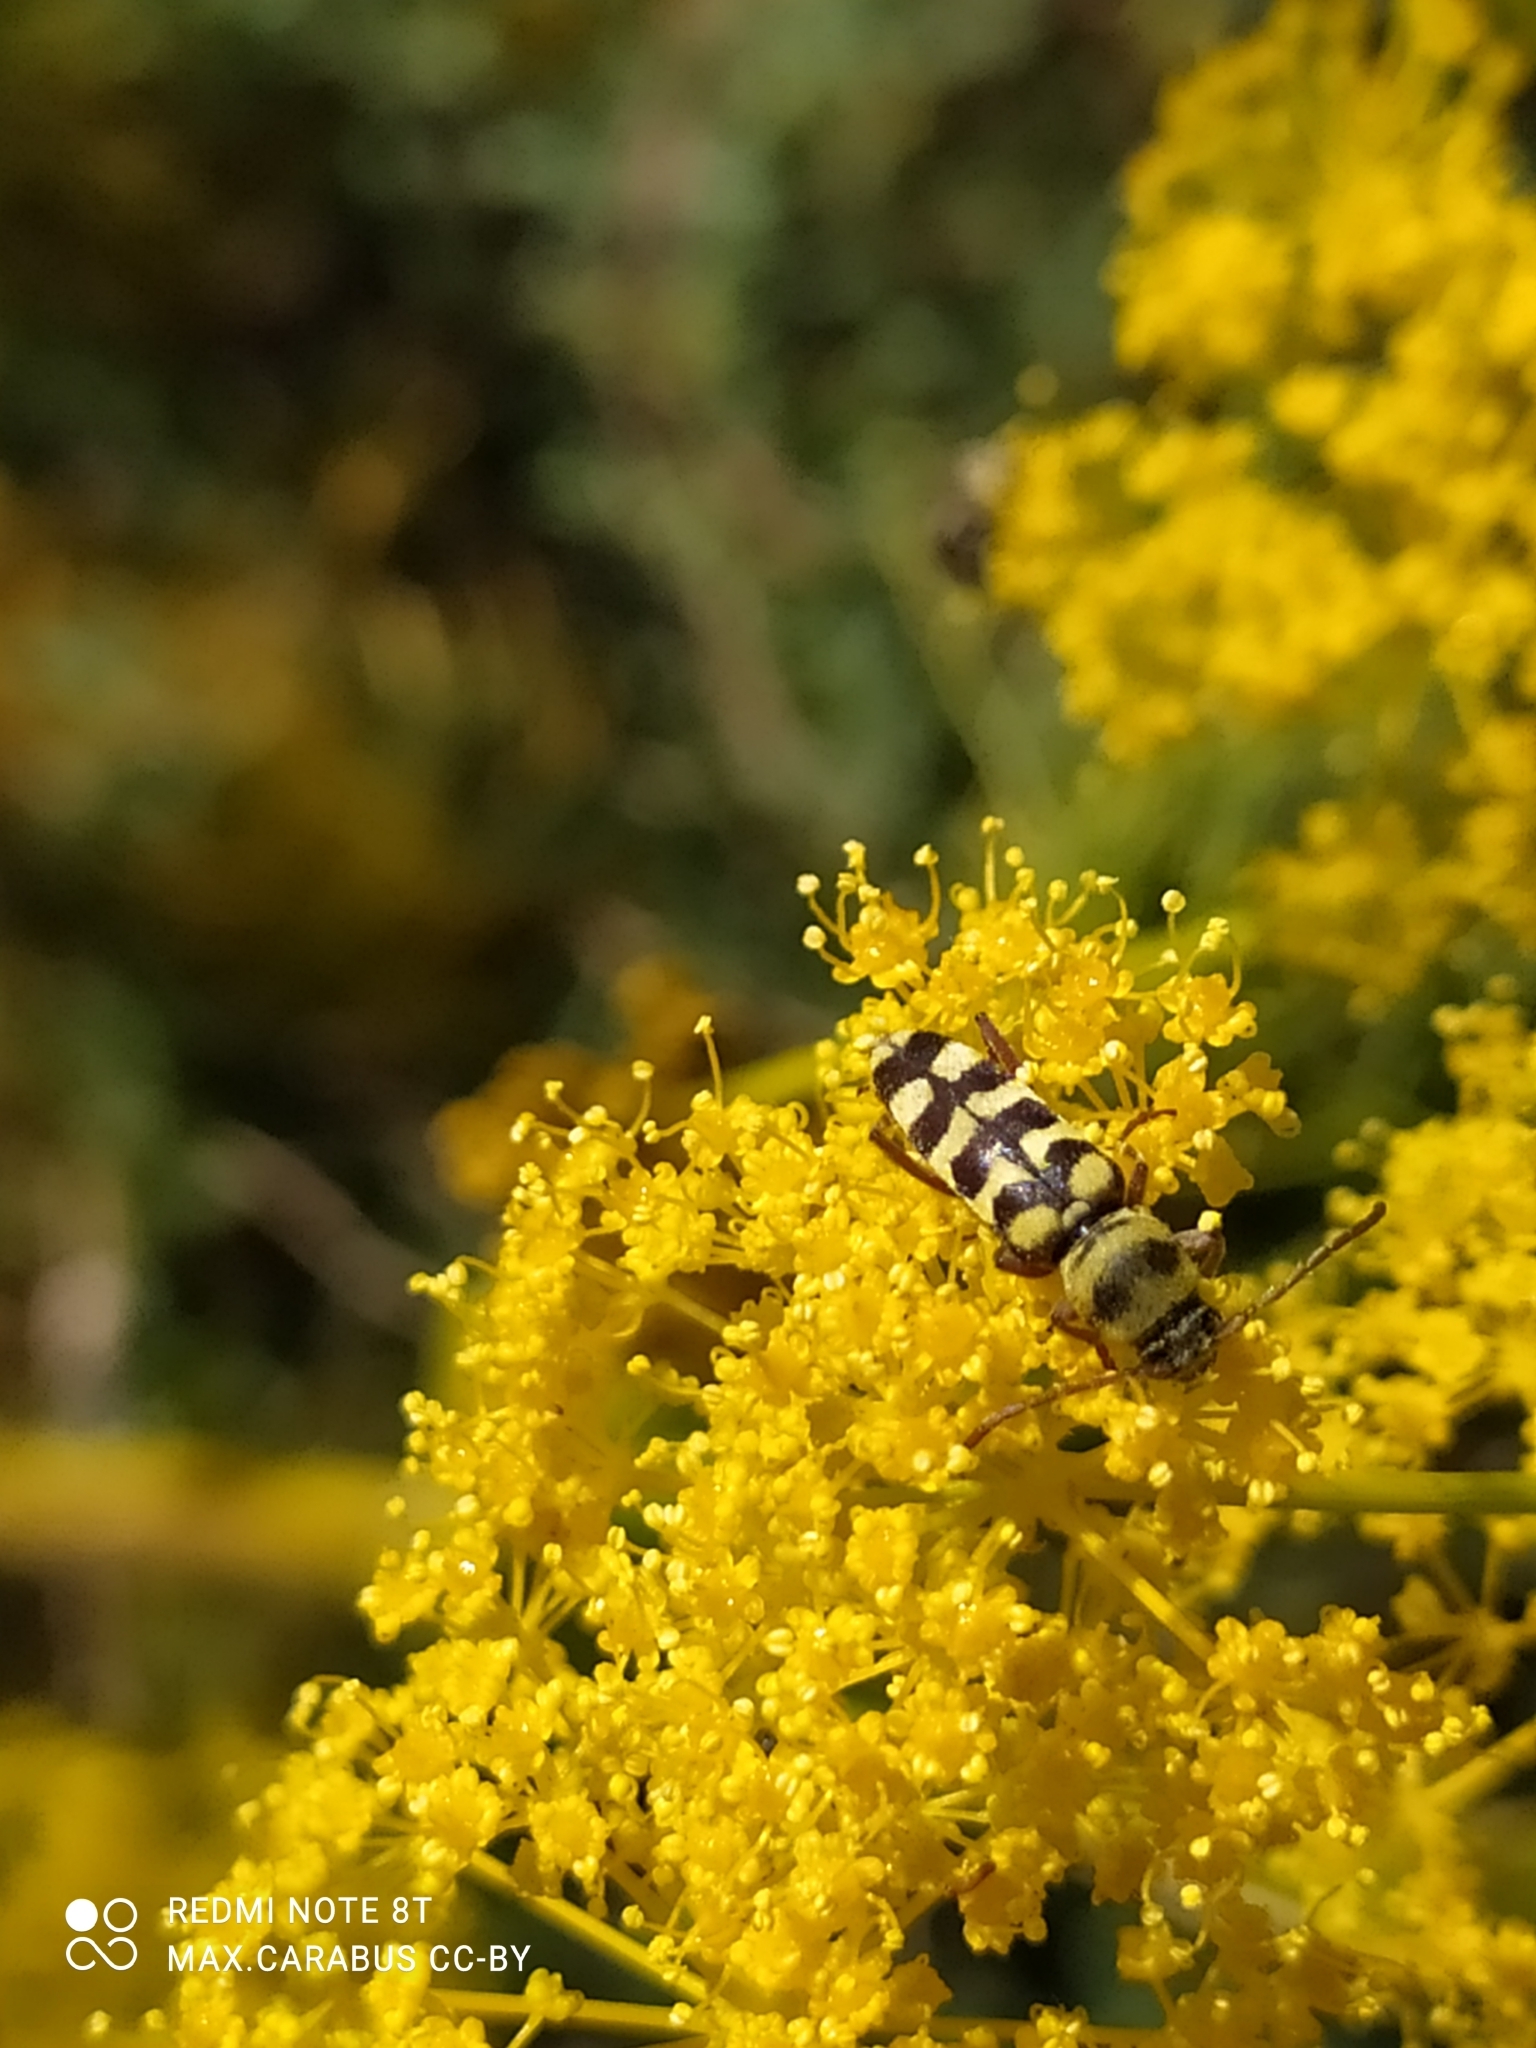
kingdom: Animalia
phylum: Arthropoda
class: Insecta
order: Coleoptera
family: Cerambycidae
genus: Plagionotus
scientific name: Plagionotus floralis
